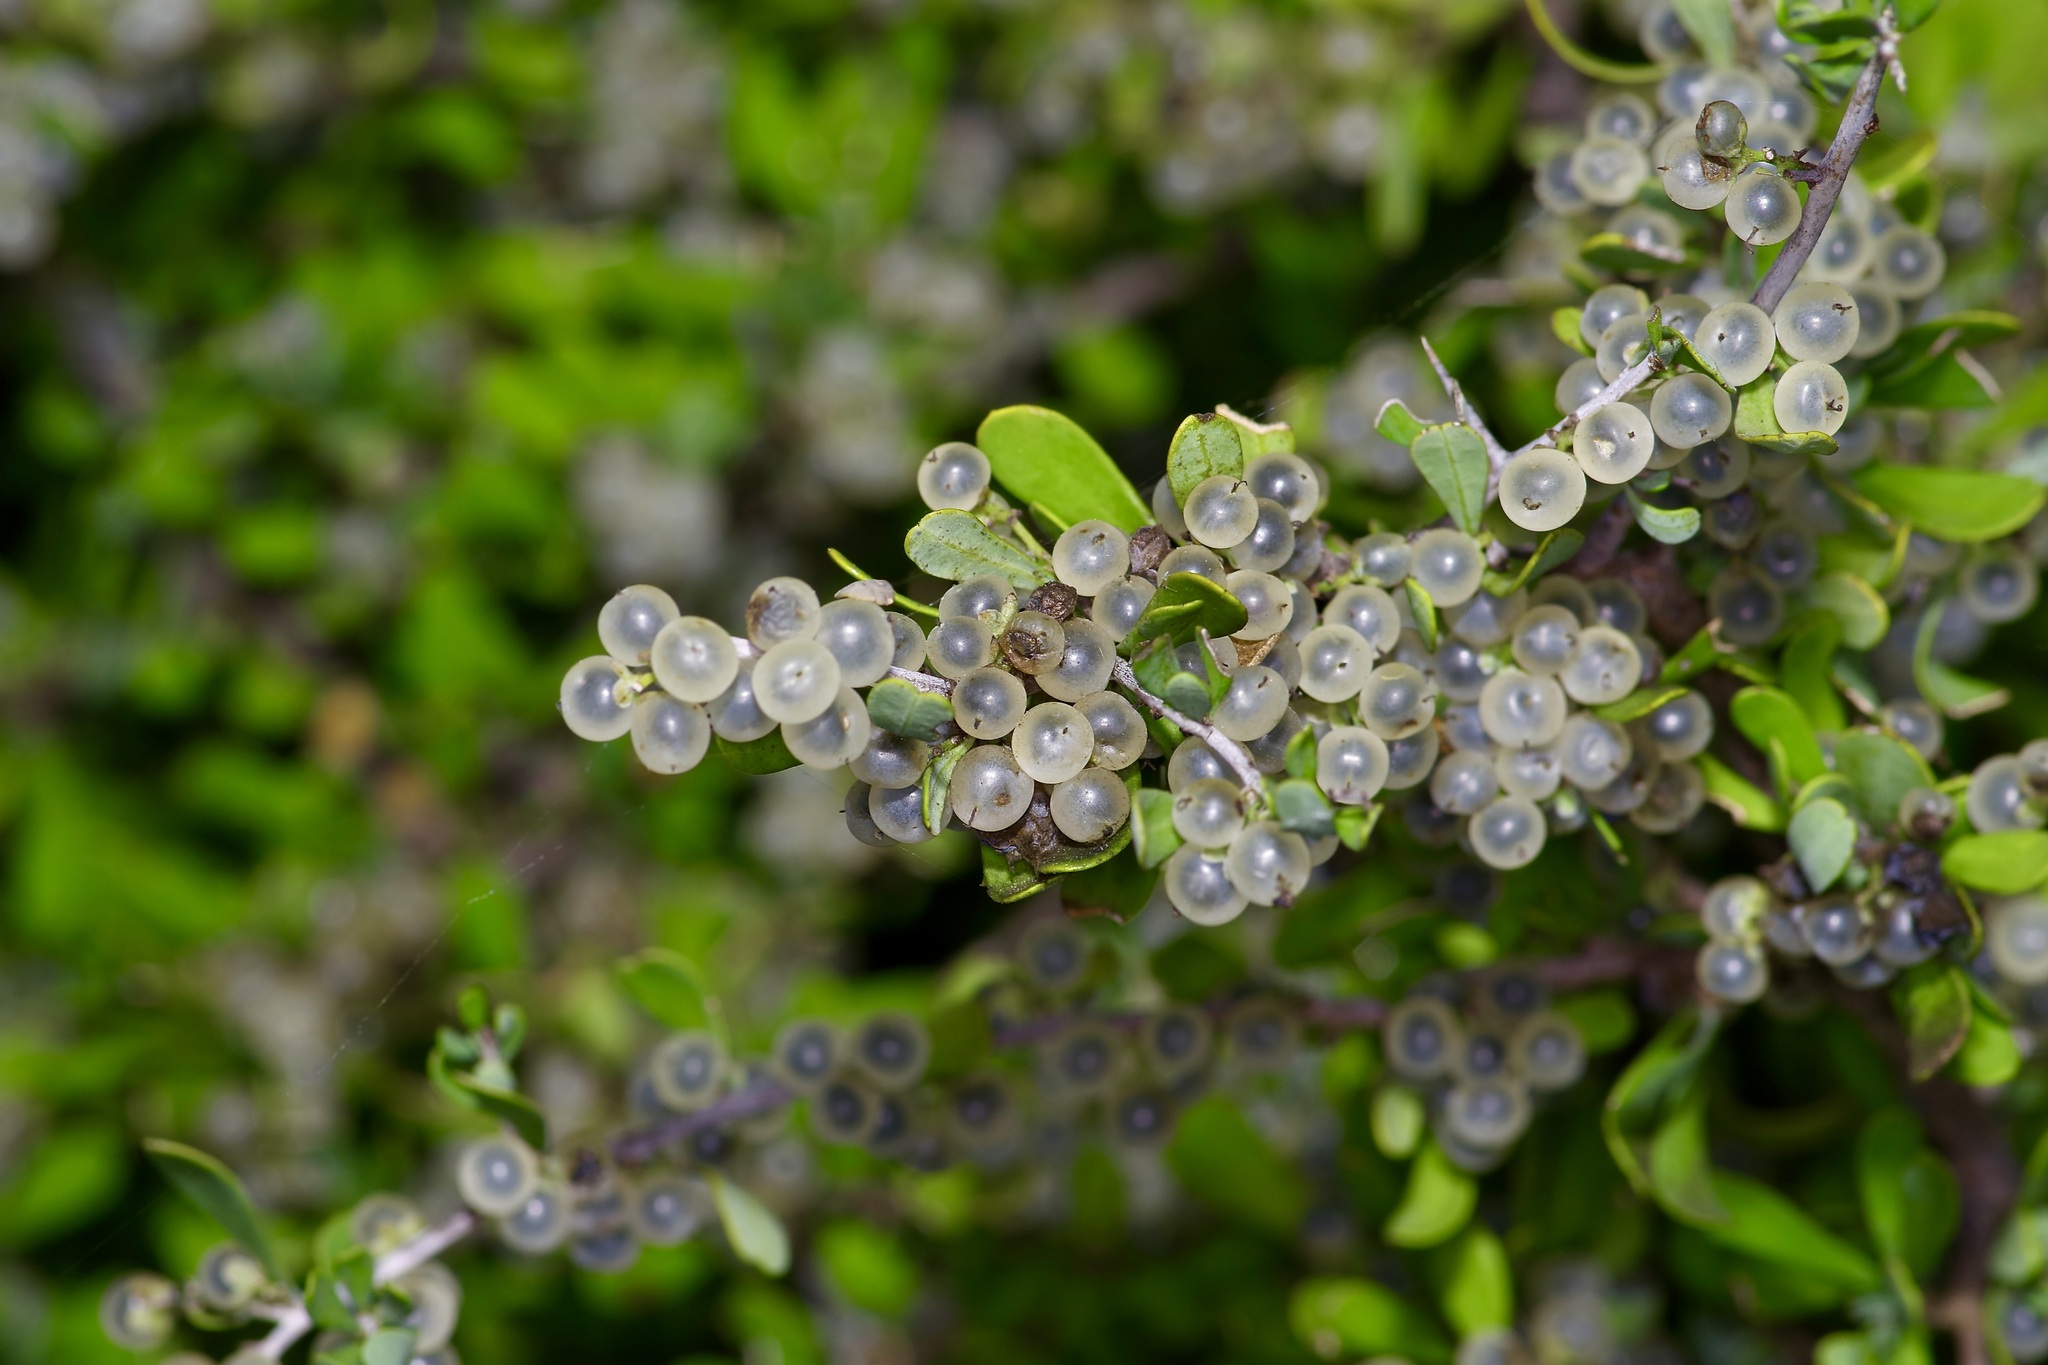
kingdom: Plantae
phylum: Tracheophyta
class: Magnoliopsida
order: Caryophyllales
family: Achatocarpaceae
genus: Phaulothamnus
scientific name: Phaulothamnus spinescens
